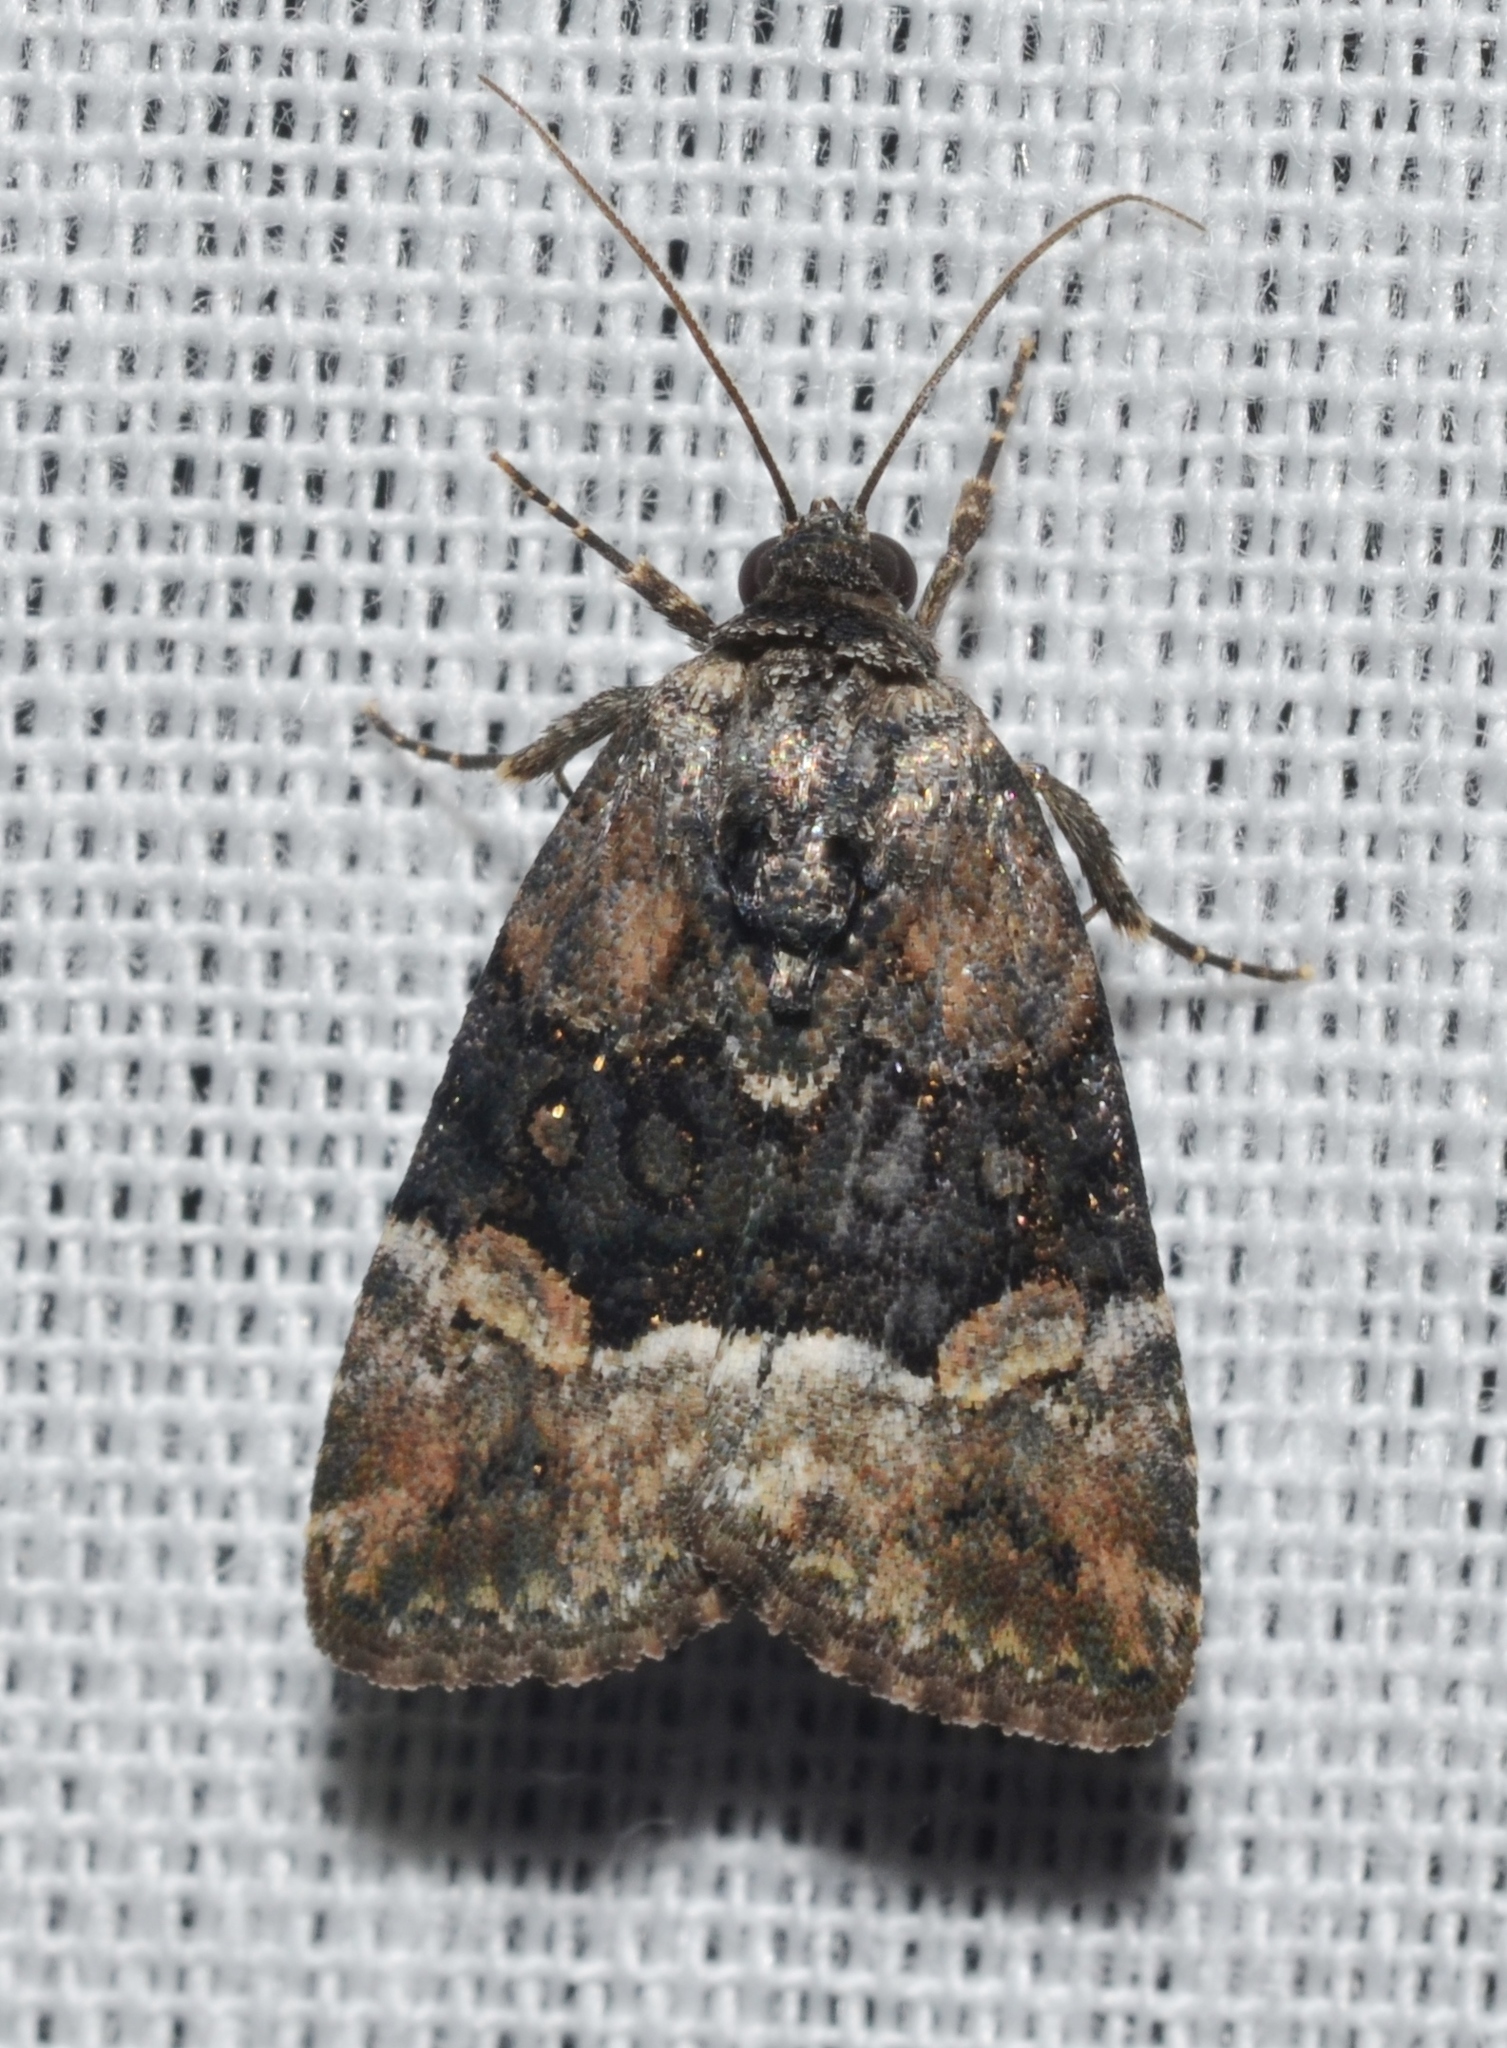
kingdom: Animalia
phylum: Arthropoda
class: Insecta
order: Lepidoptera
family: Noctuidae
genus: Elaphria
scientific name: Elaphria georgei
